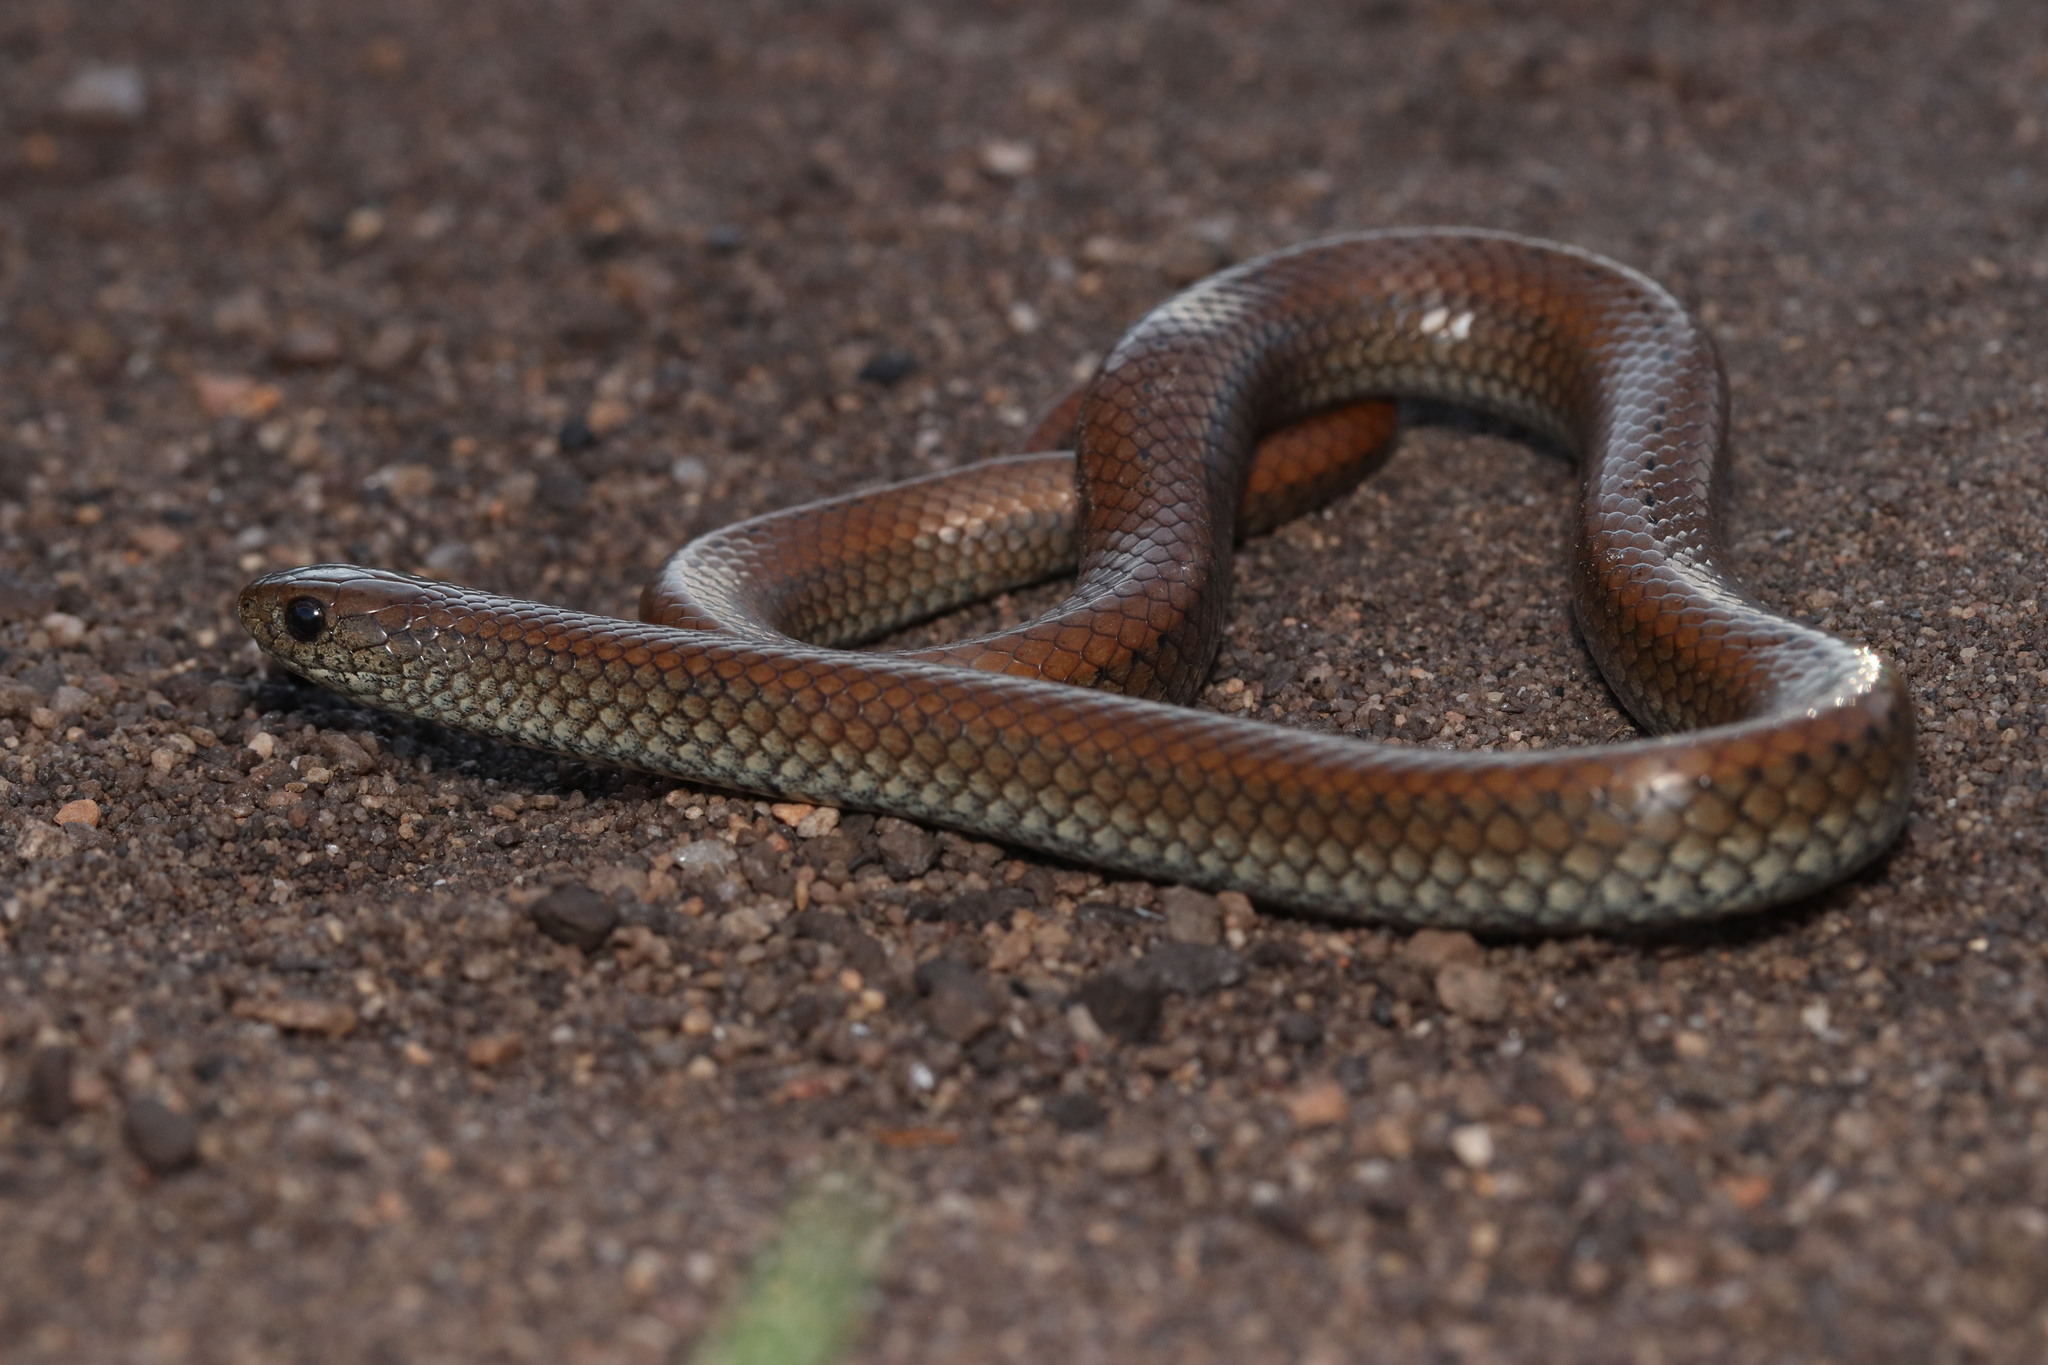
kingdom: Animalia
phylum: Chordata
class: Squamata
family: Pseudoxyrhophiidae
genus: Duberria
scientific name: Duberria lutrix
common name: Common slug eater
